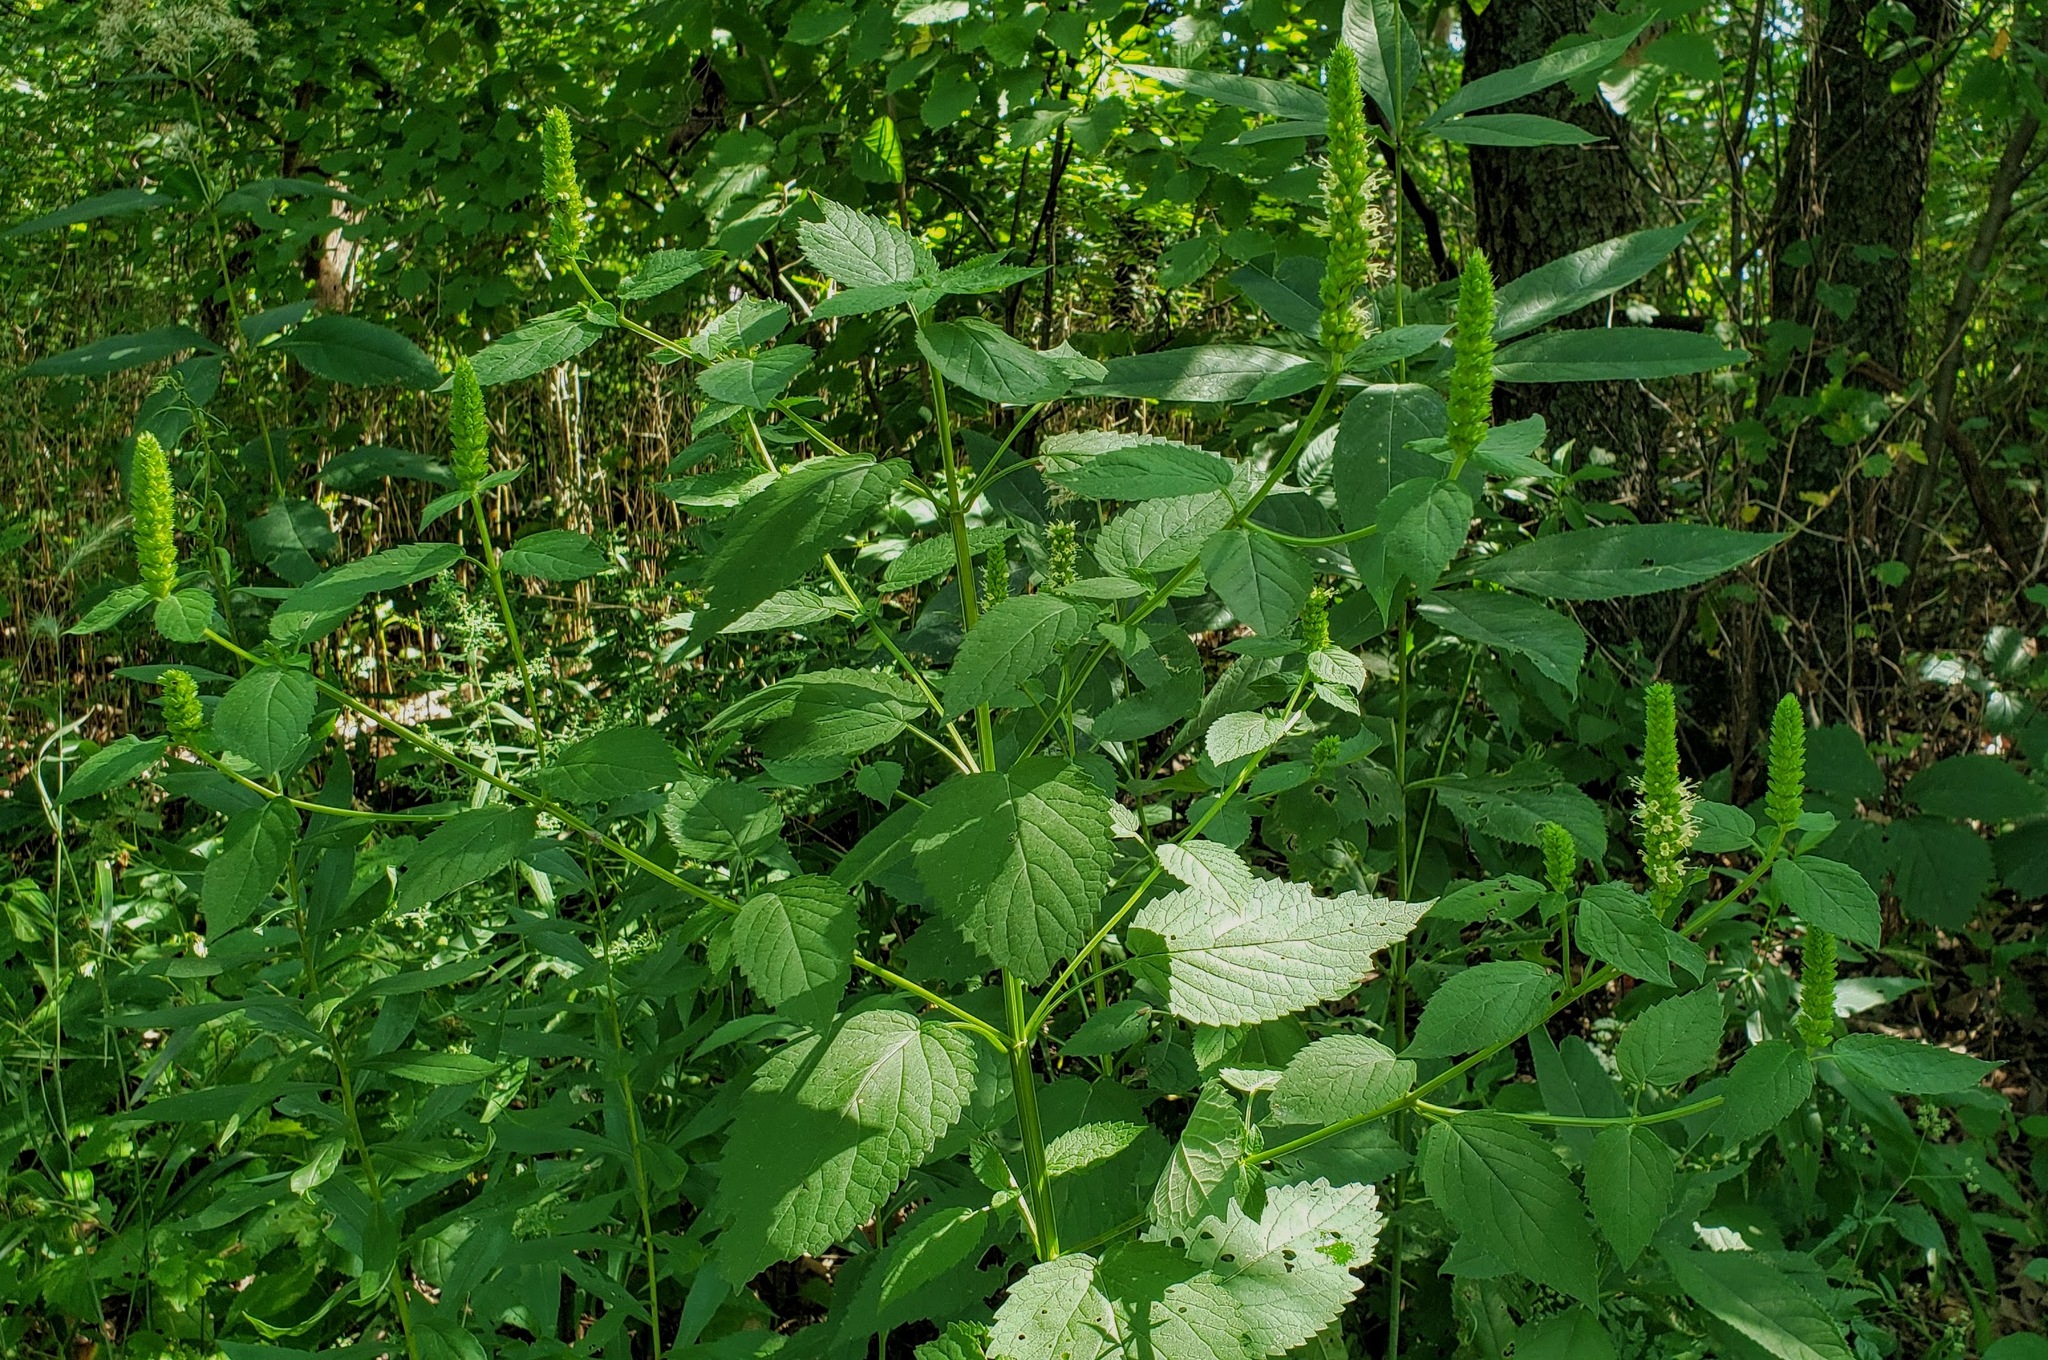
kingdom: Plantae
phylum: Tracheophyta
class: Magnoliopsida
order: Lamiales
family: Lamiaceae
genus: Agastache
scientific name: Agastache nepetoides
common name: Catnip giant hyssop
